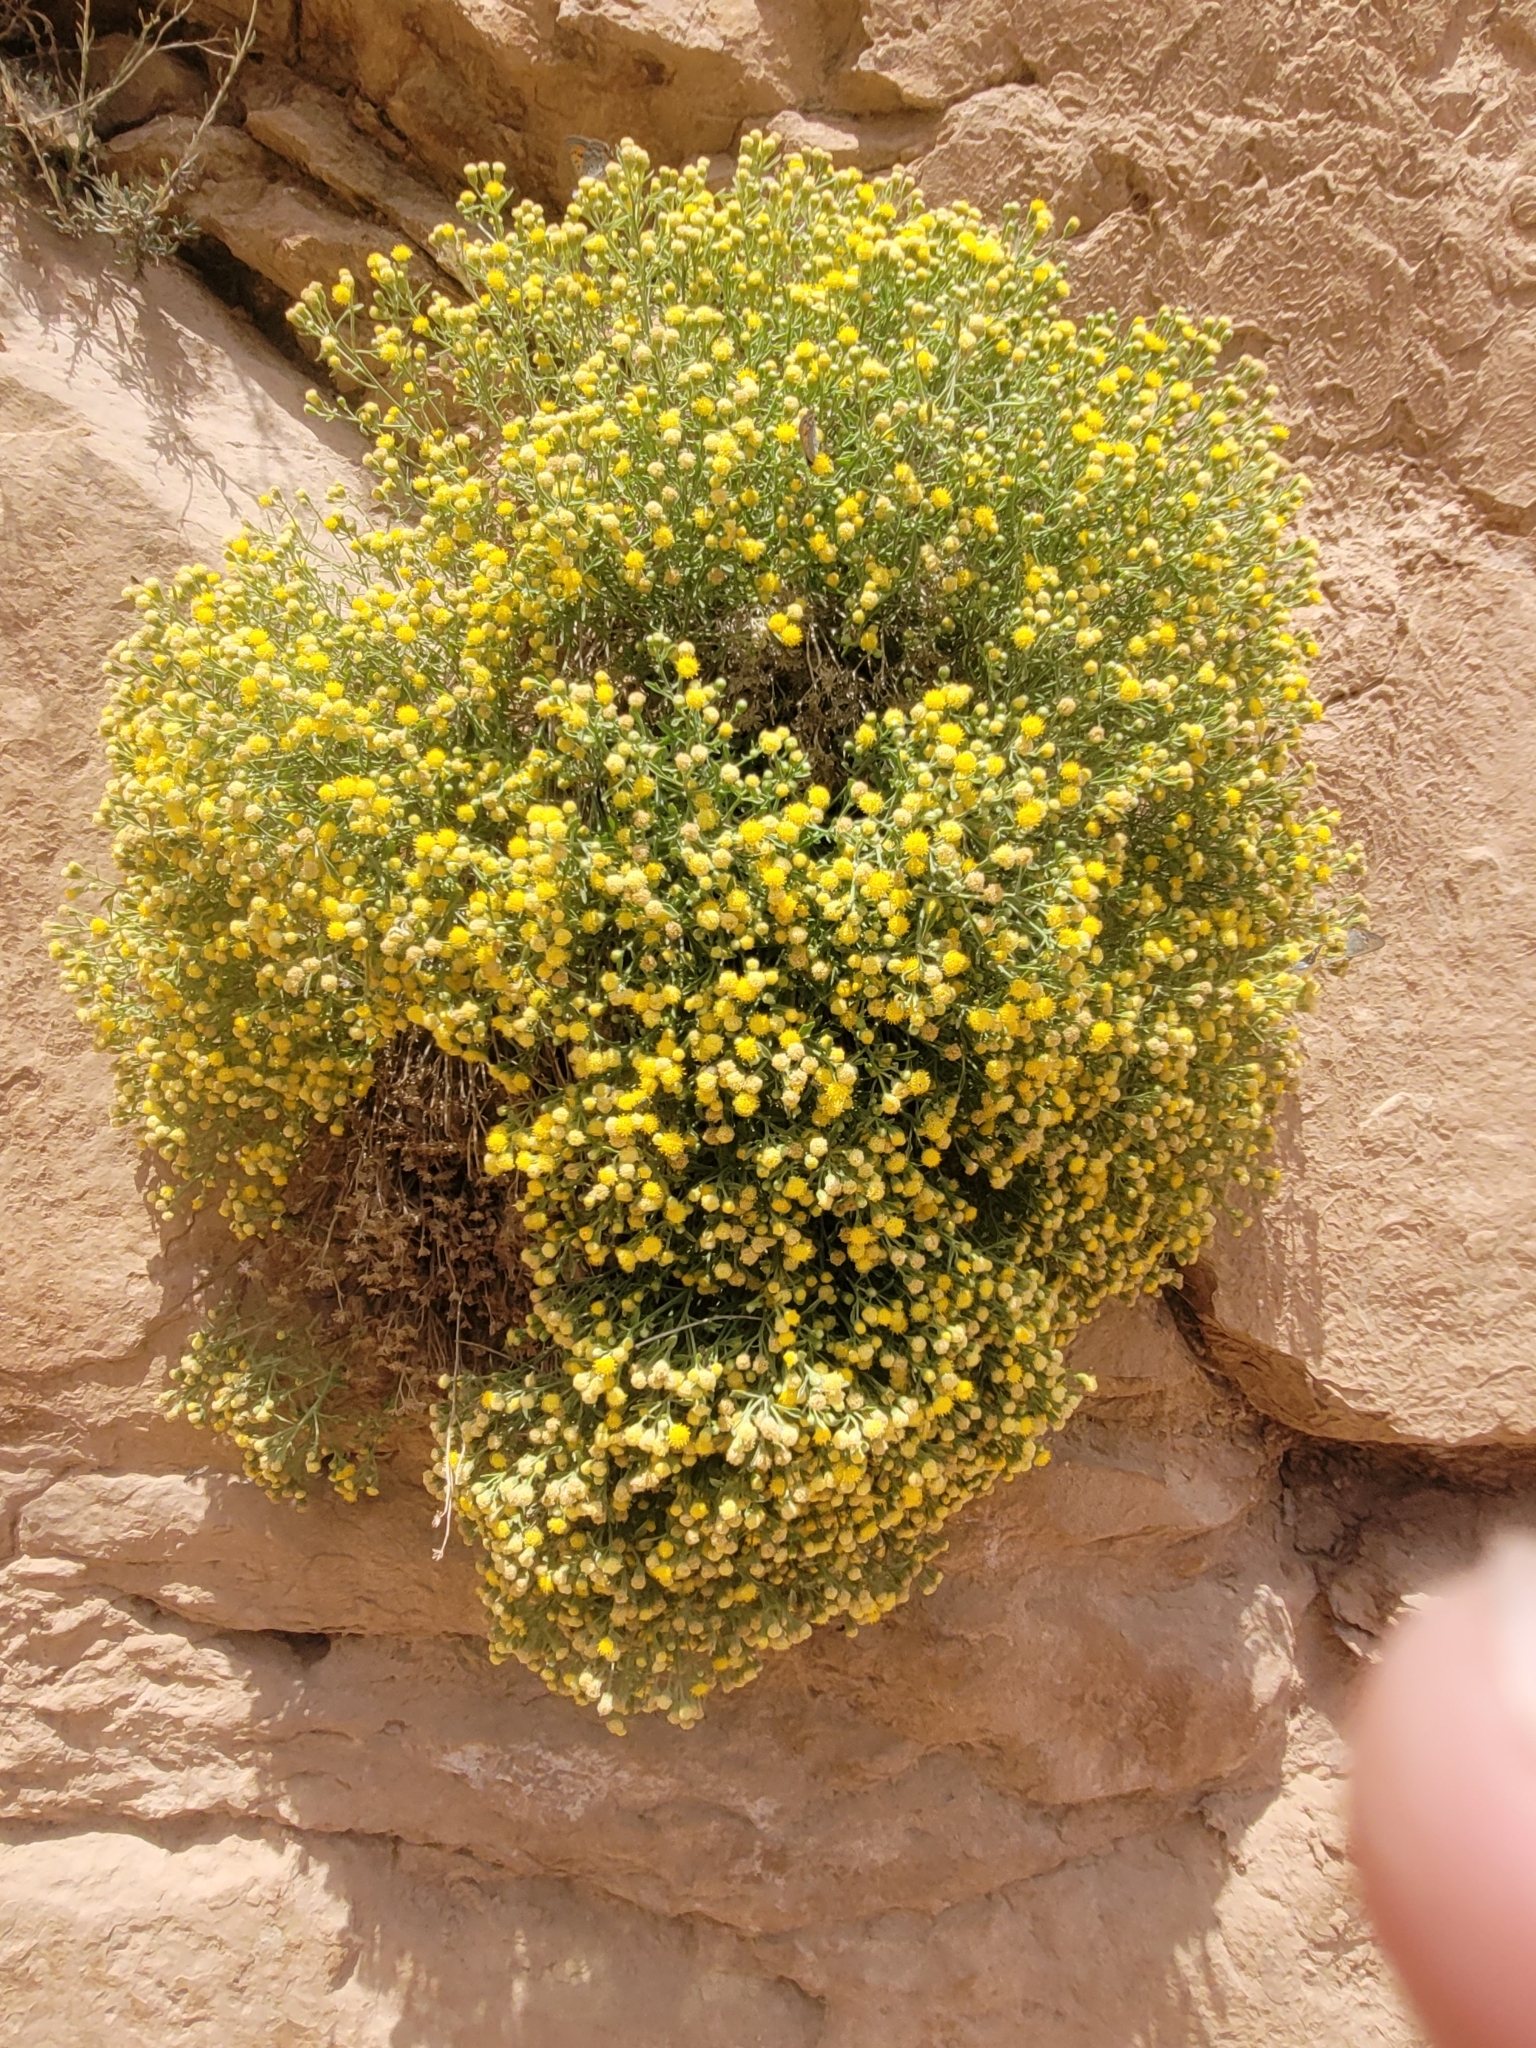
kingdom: Plantae
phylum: Tracheophyta
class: Magnoliopsida
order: Asterales
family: Asteraceae
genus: Laphamia
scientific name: Laphamia congesta
